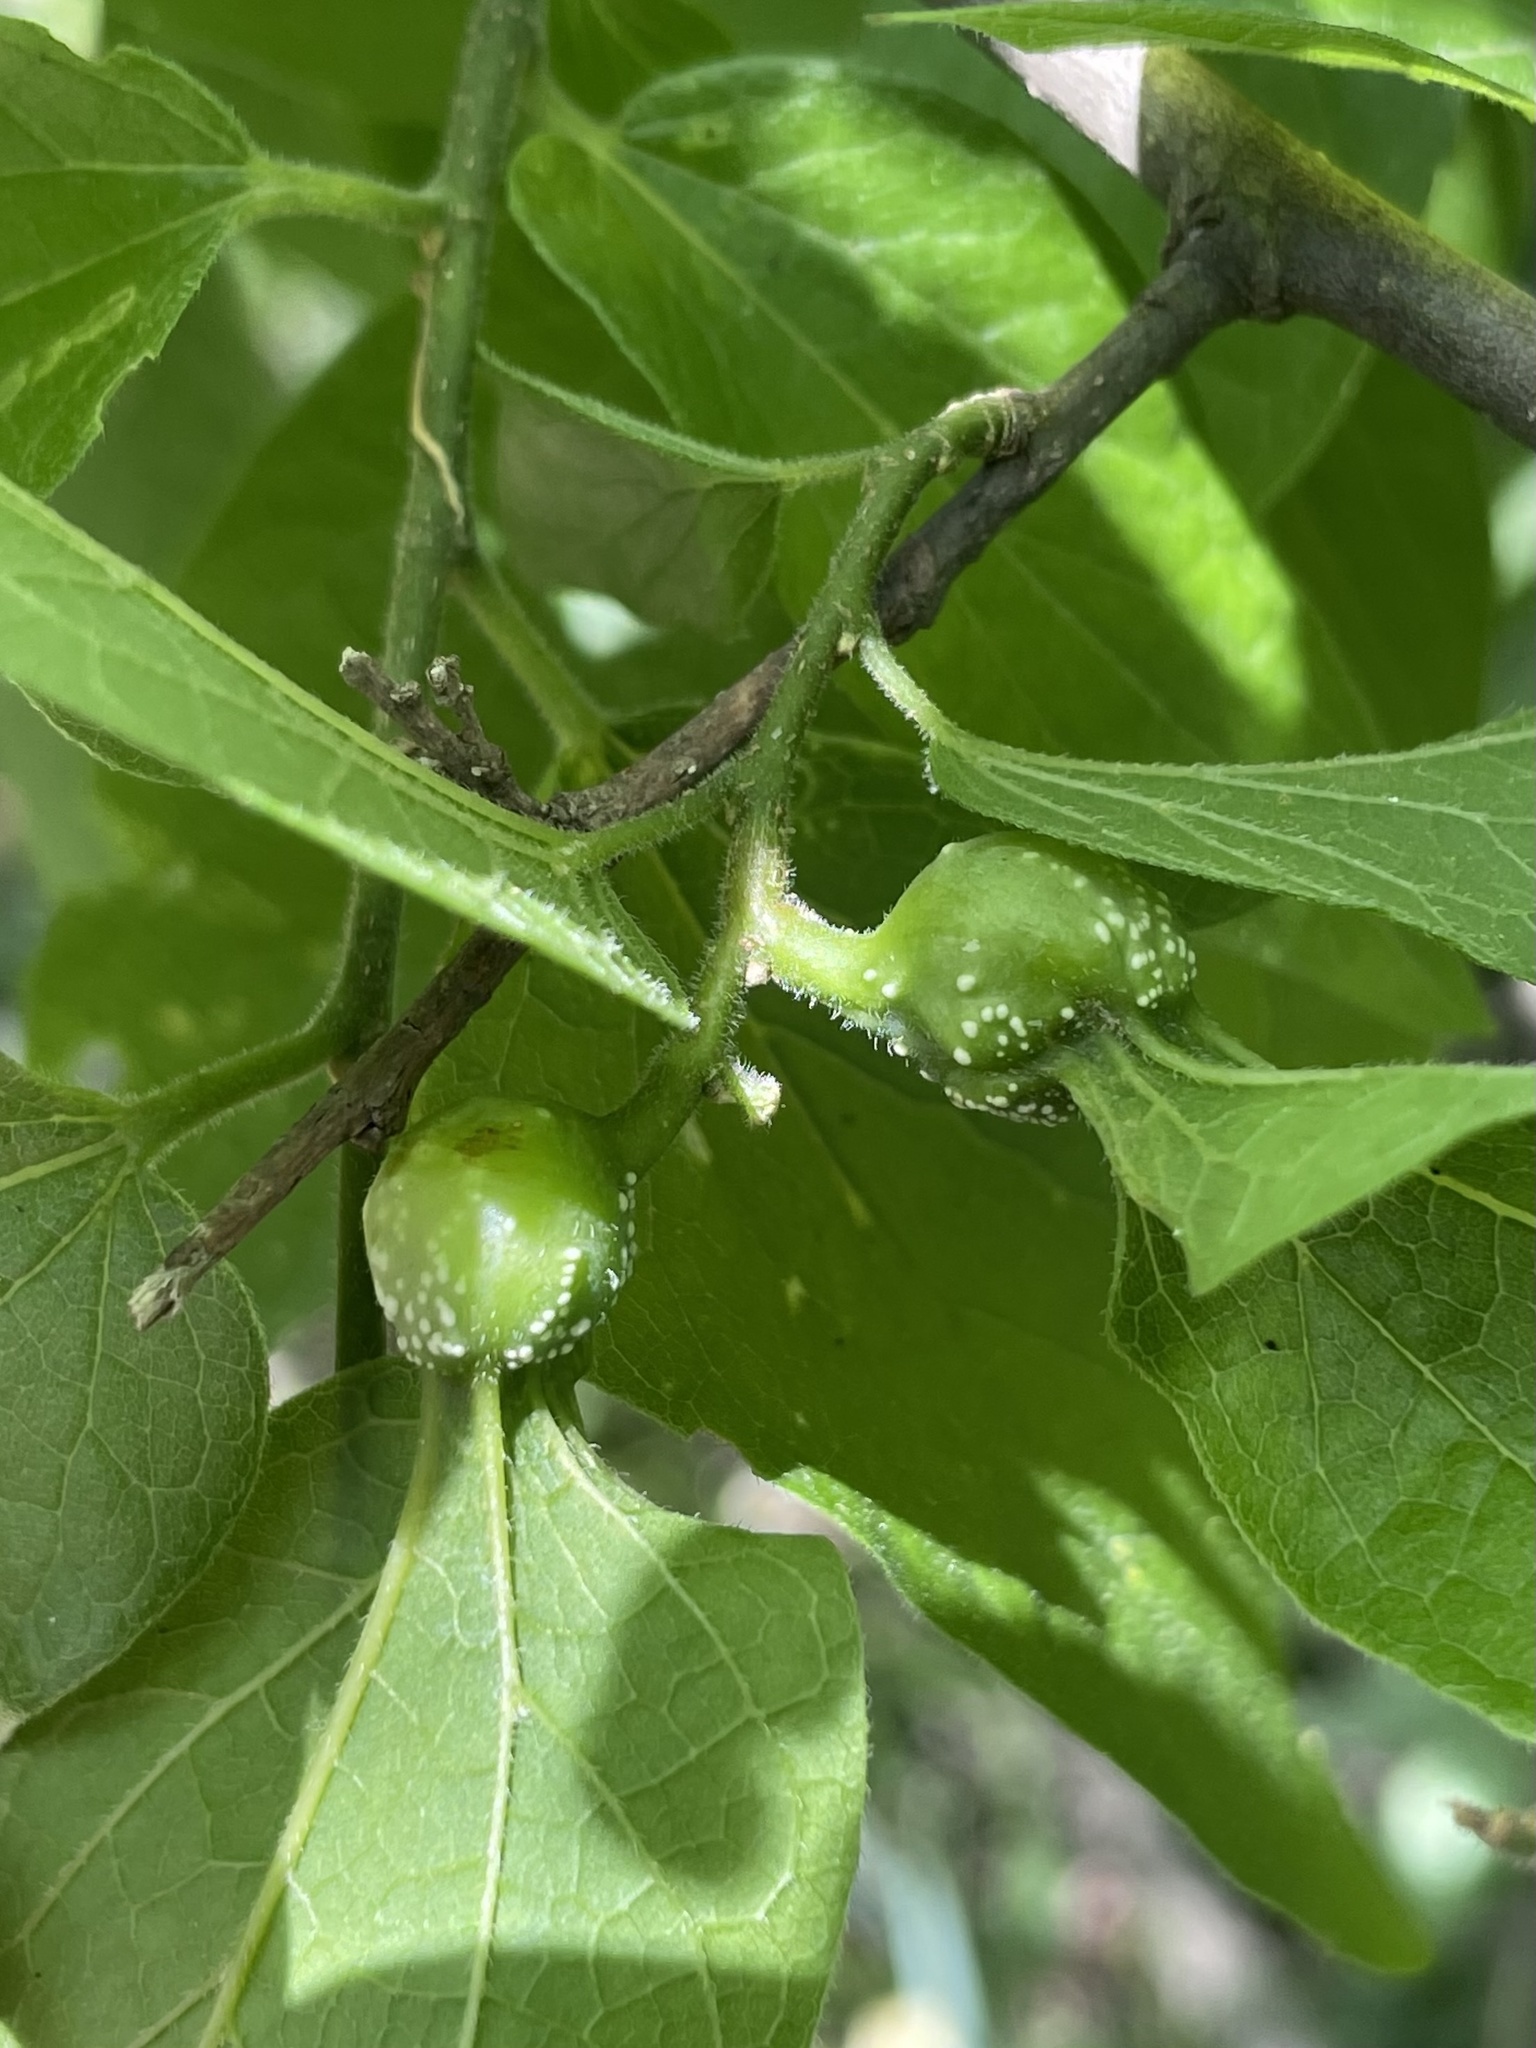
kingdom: Animalia
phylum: Arthropoda
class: Insecta
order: Hemiptera
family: Aphalaridae
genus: Pachypsylla
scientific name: Pachypsylla venusta
